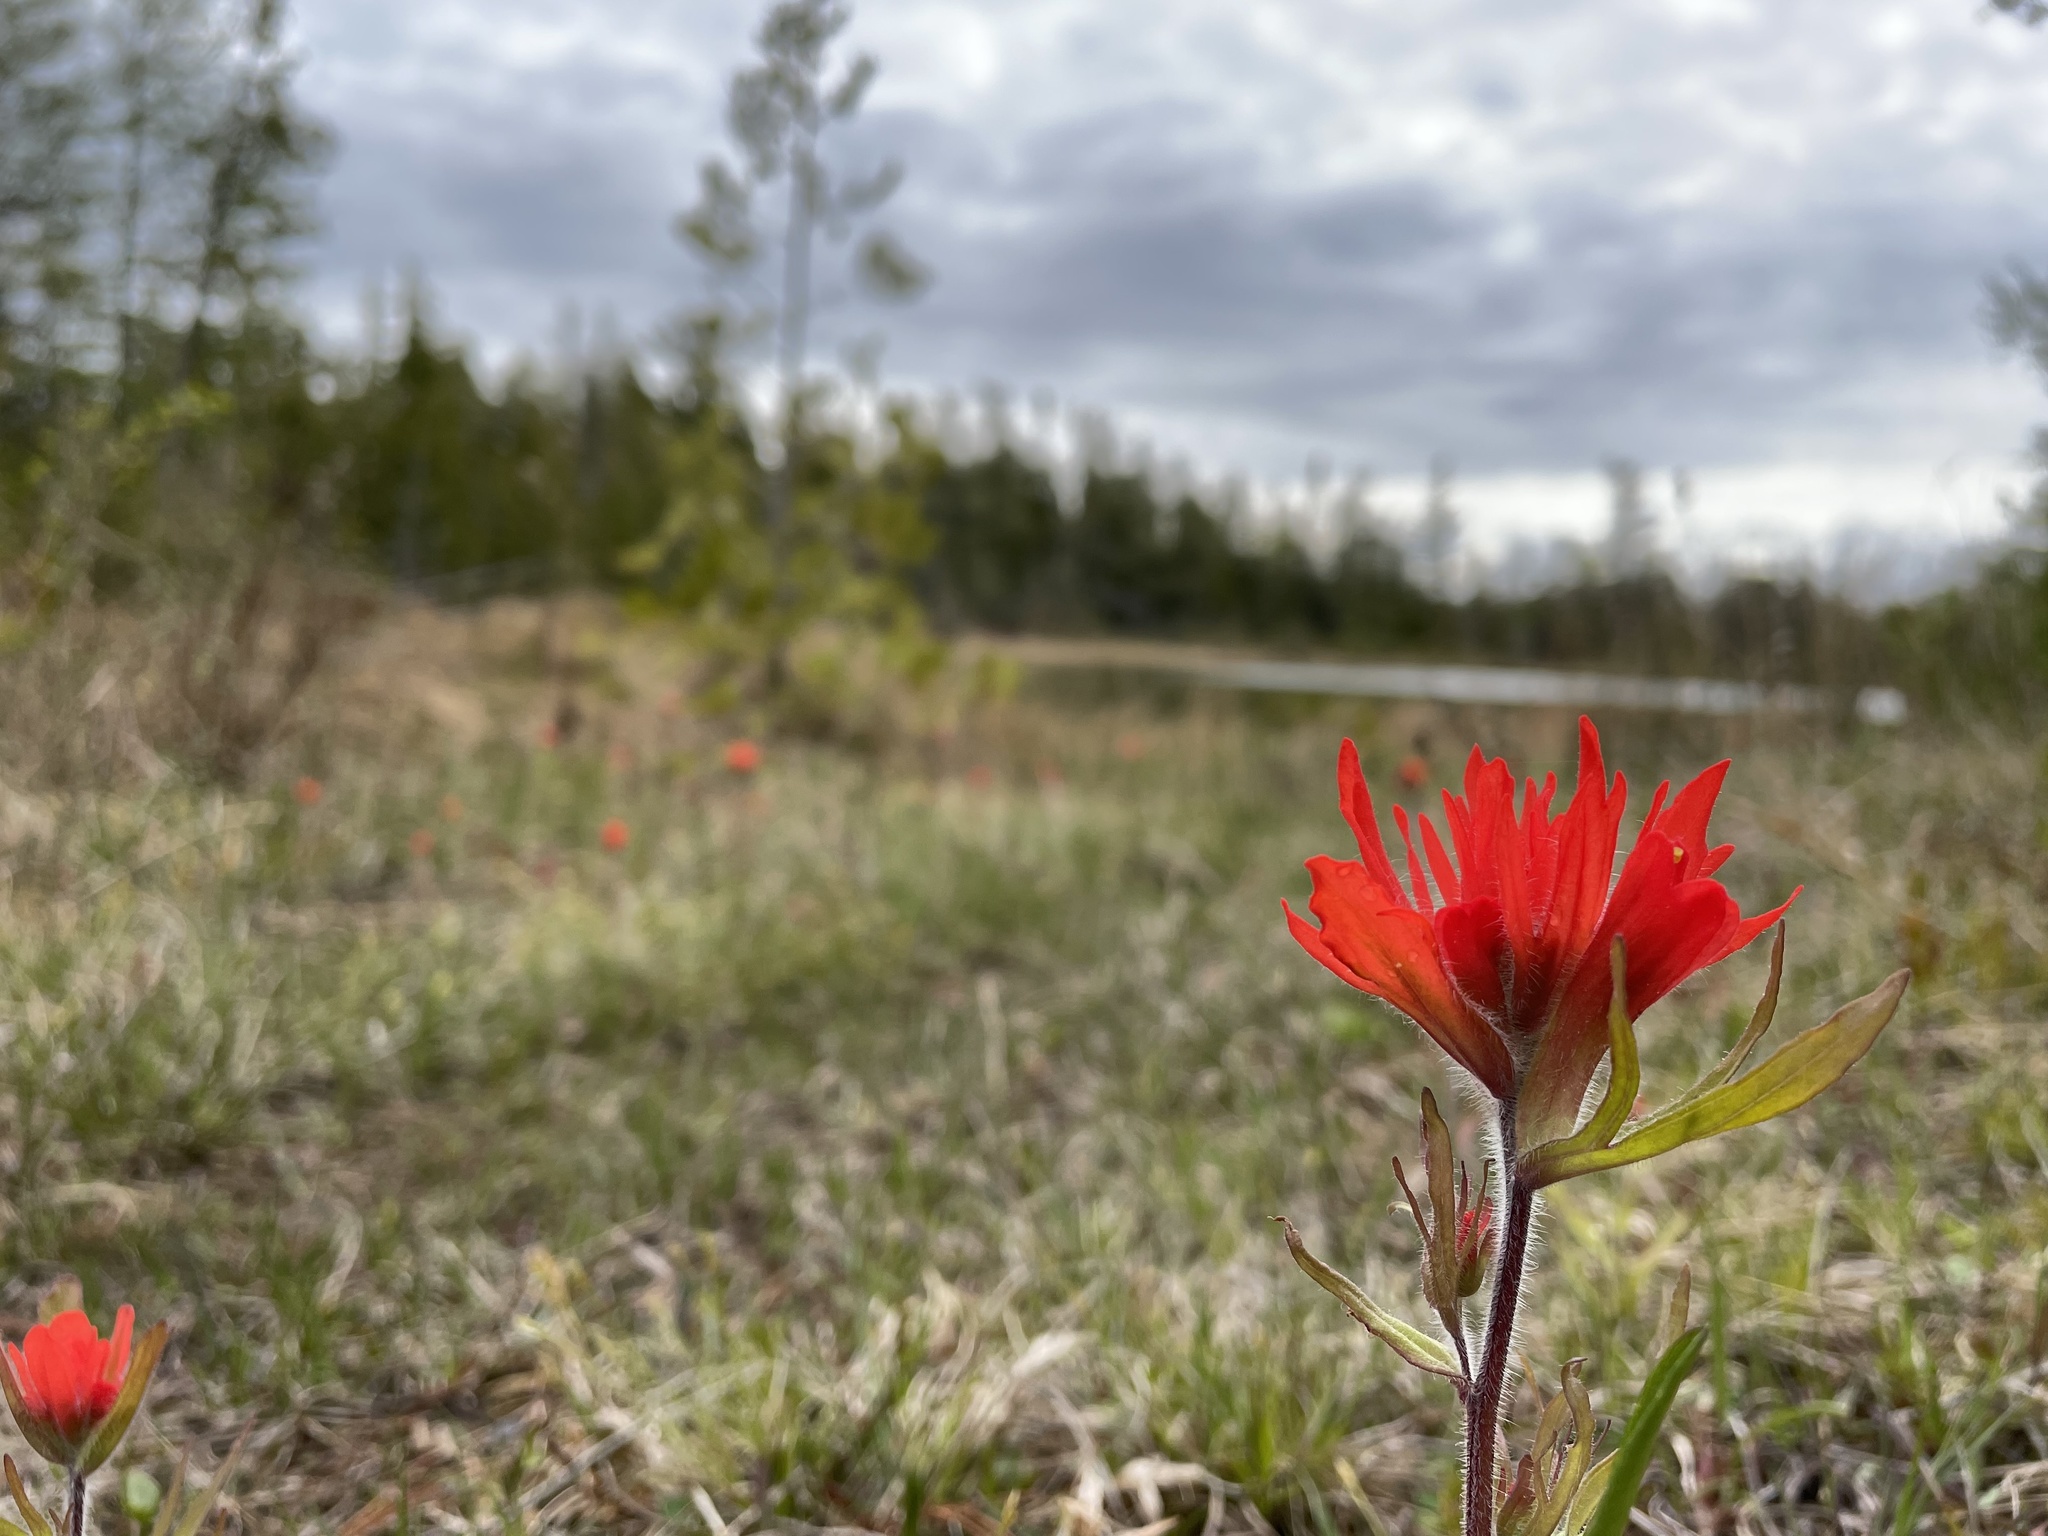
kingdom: Plantae
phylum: Tracheophyta
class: Magnoliopsida
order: Lamiales
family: Orobanchaceae
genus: Castilleja
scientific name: Castilleja coccinea
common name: Scarlet paintbrush
